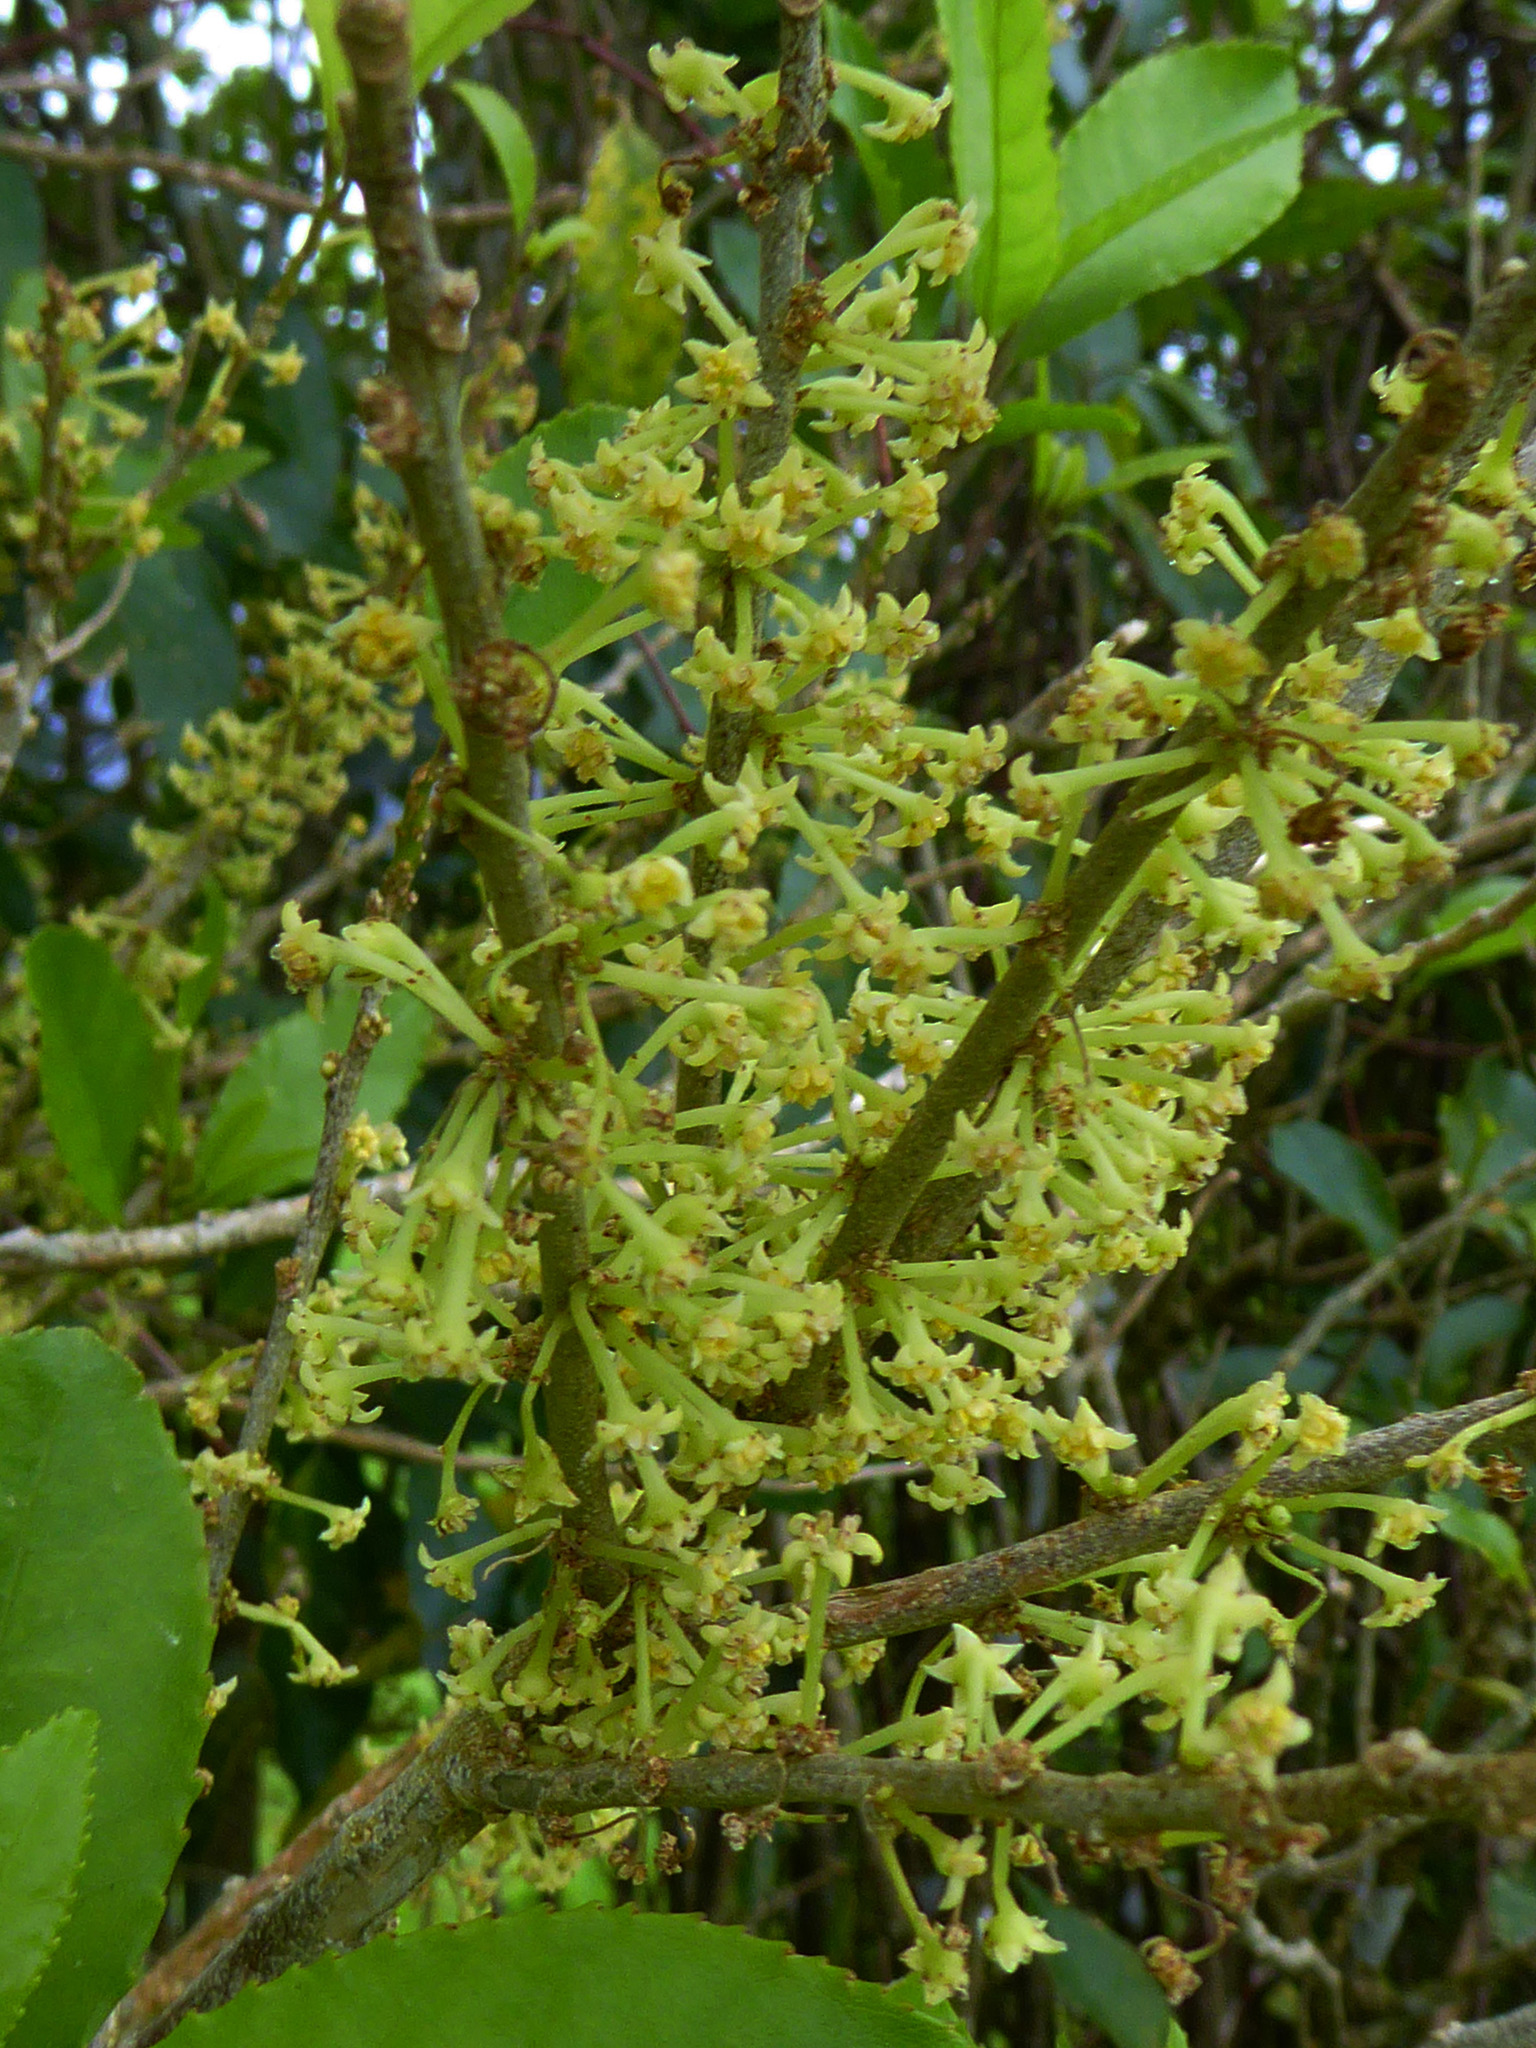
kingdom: Plantae
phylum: Tracheophyta
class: Magnoliopsida
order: Malpighiales
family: Violaceae
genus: Melicytus
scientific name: Melicytus ramiflorus
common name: Mahoe
